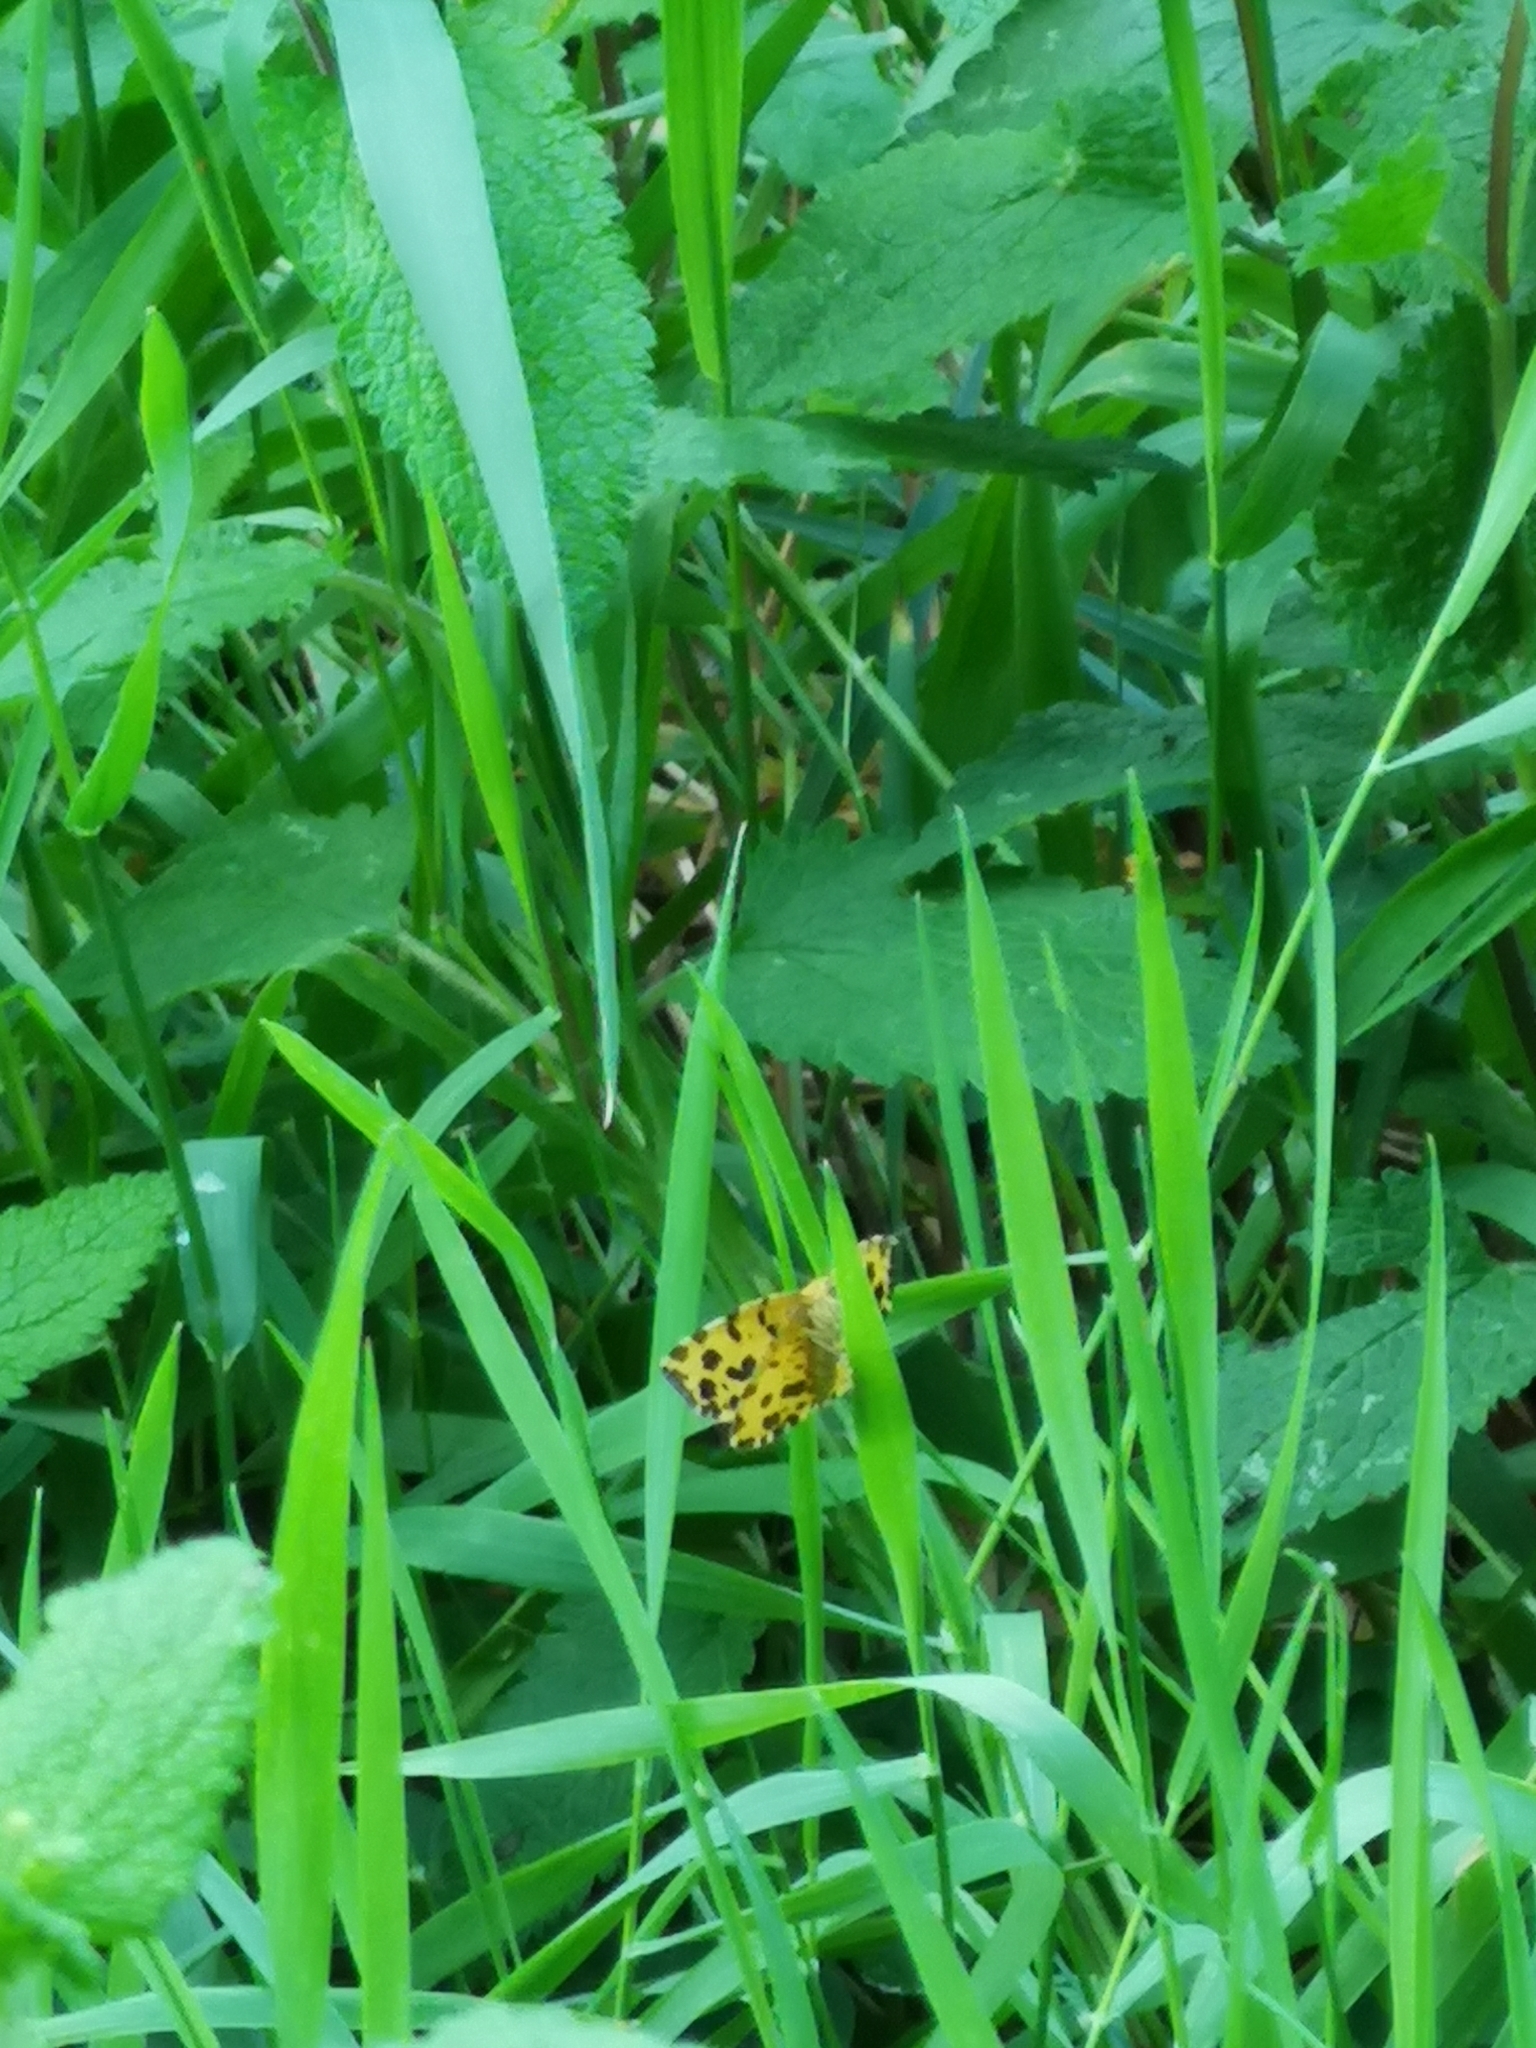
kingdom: Animalia
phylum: Arthropoda
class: Insecta
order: Lepidoptera
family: Geometridae
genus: Pseudopanthera
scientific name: Pseudopanthera macularia
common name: Speckled yellow
